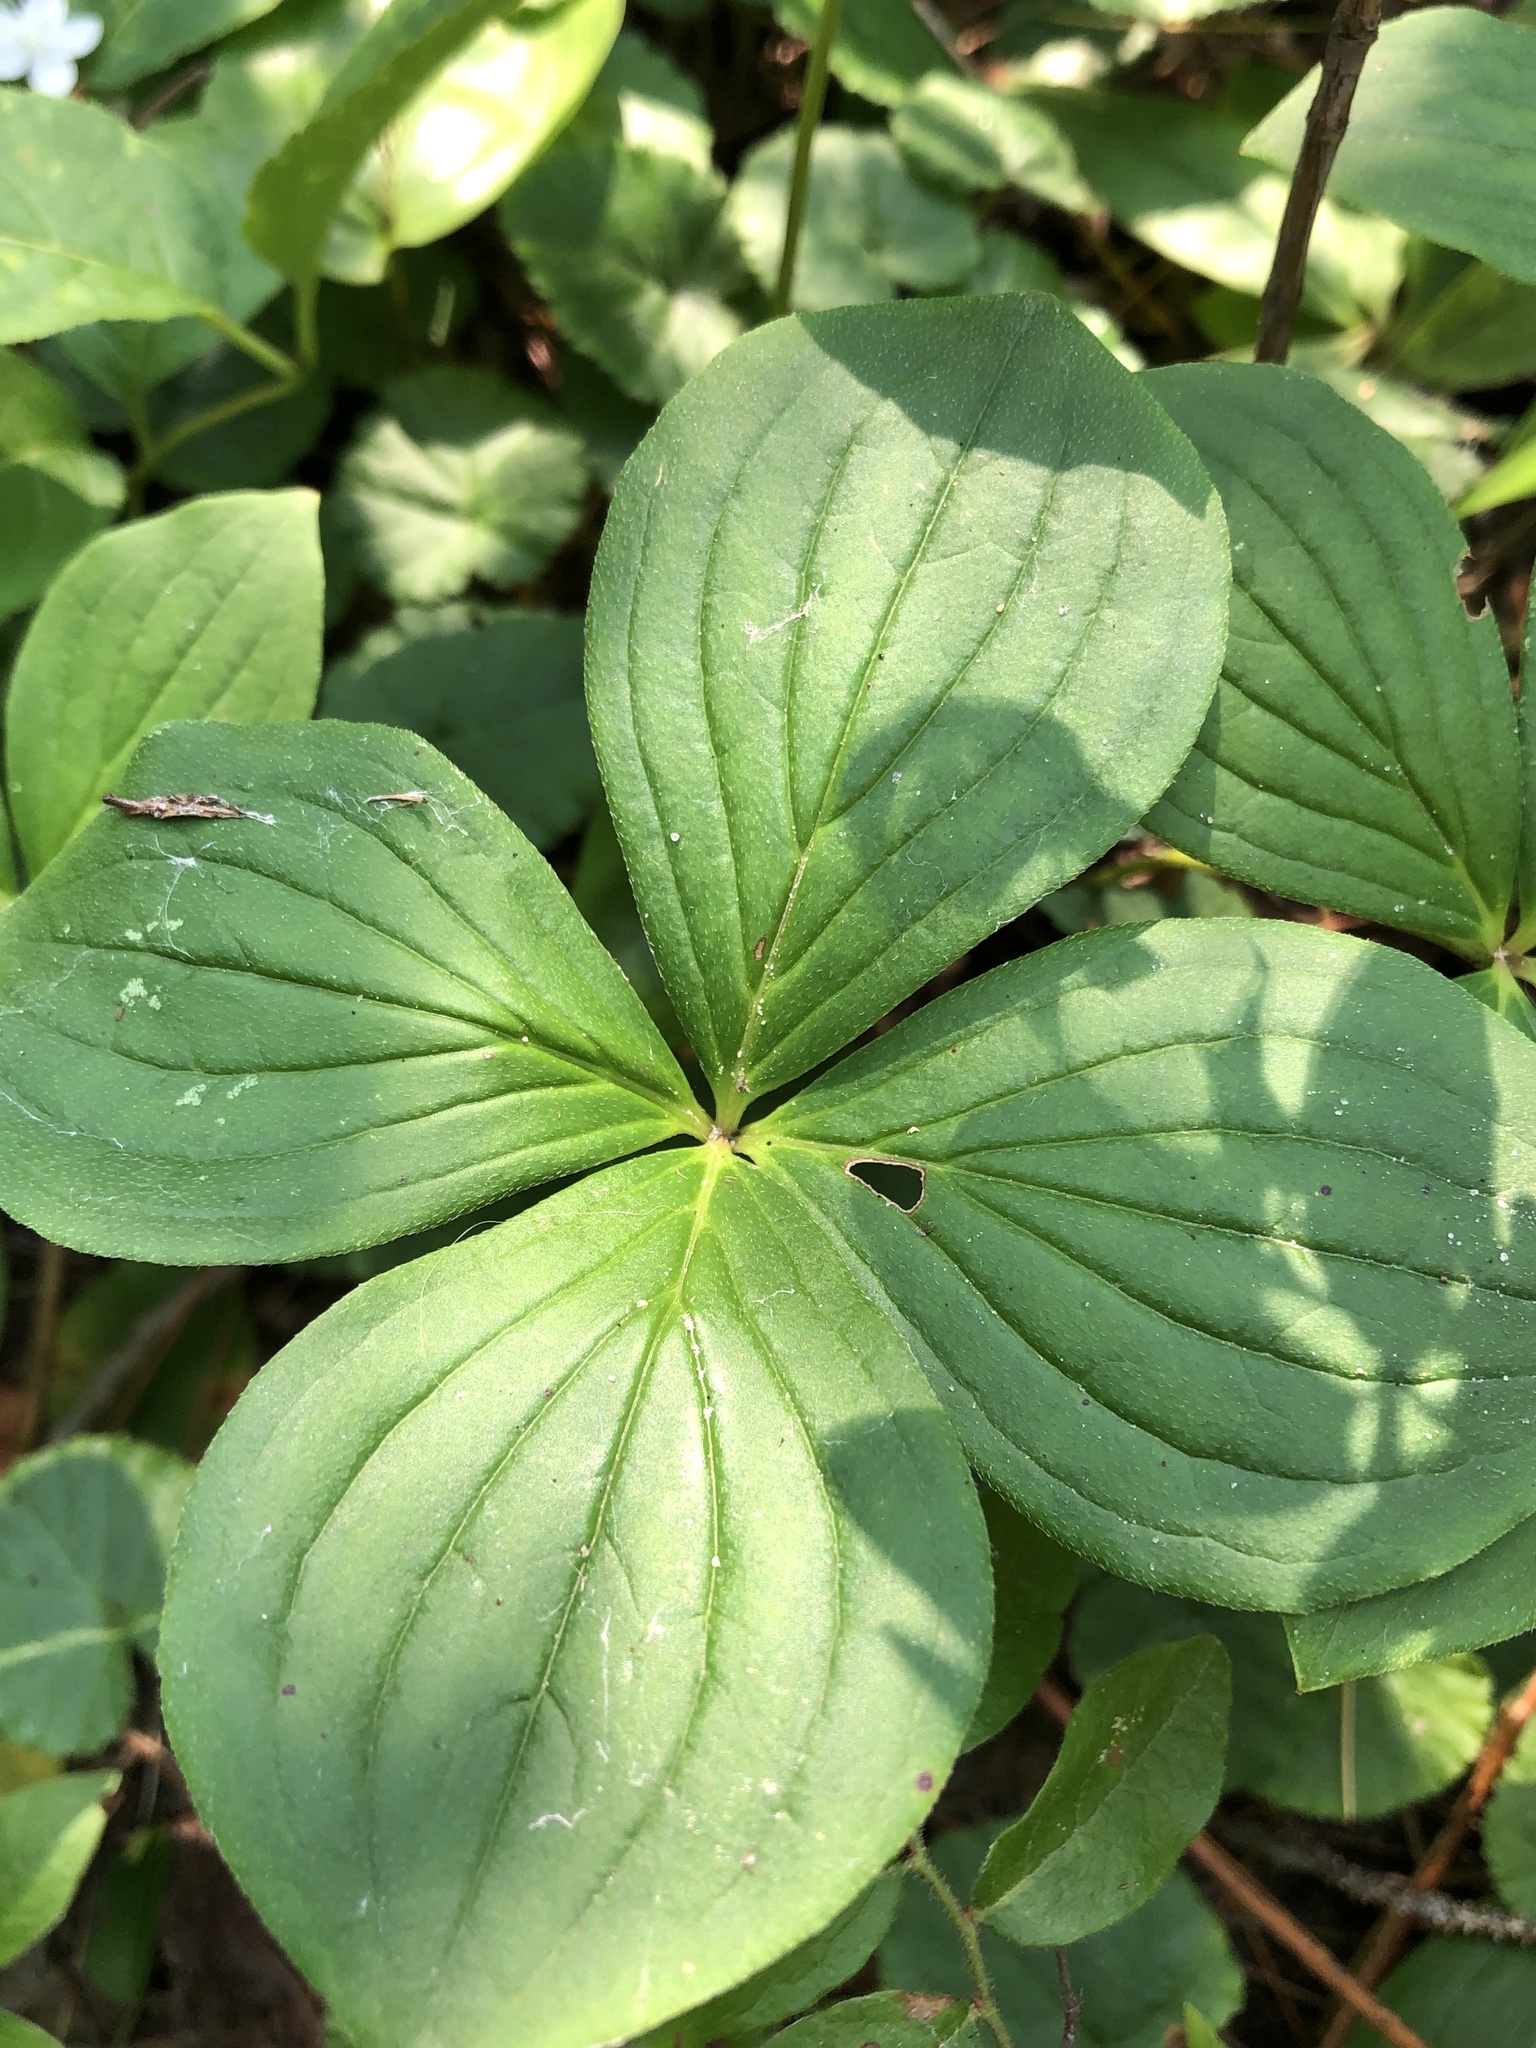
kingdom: Plantae
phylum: Tracheophyta
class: Magnoliopsida
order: Cornales
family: Cornaceae
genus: Cornus
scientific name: Cornus canadensis
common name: Creeping dogwood
